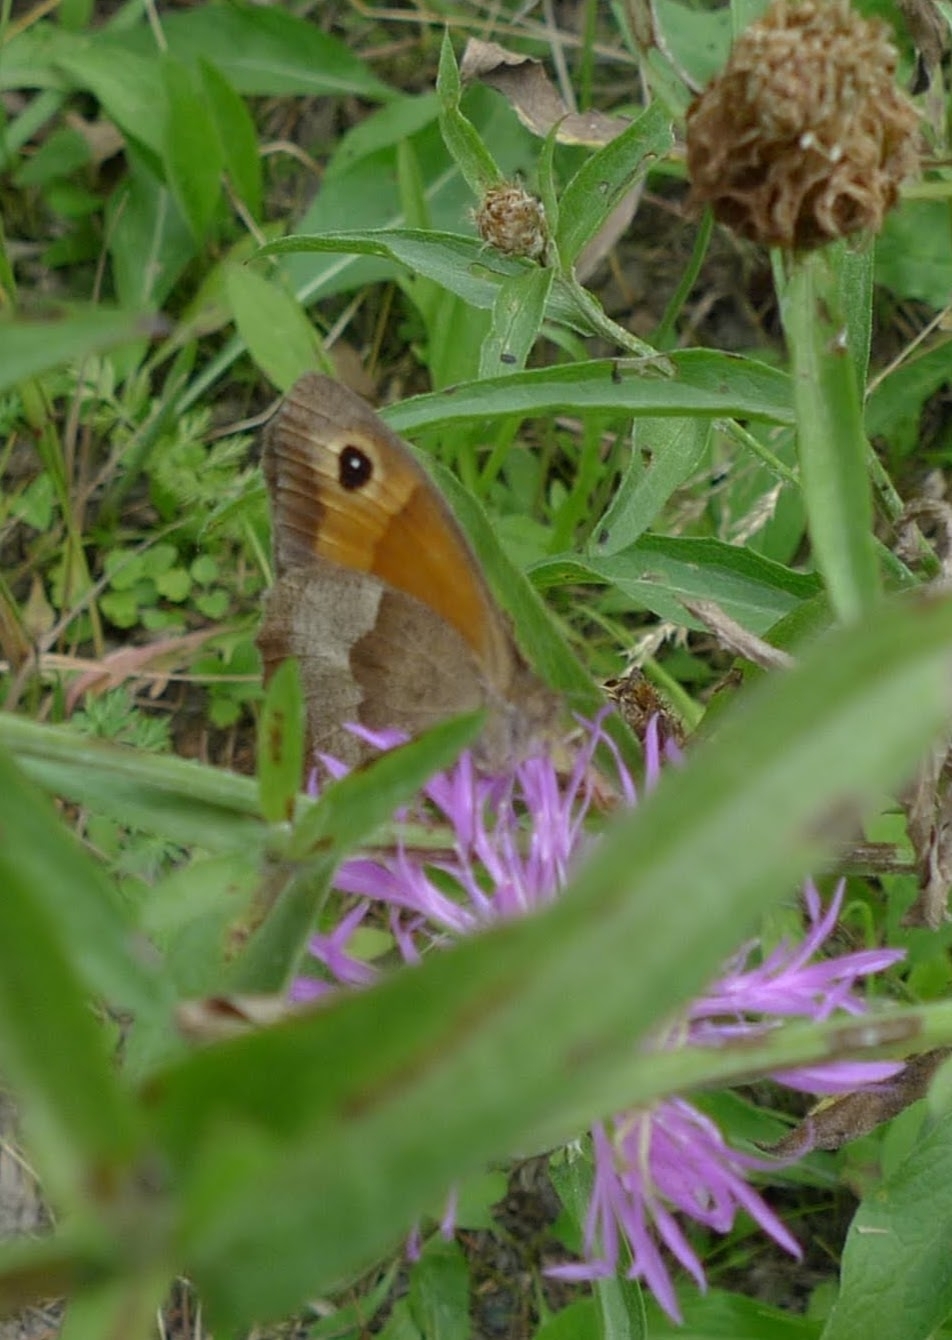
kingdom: Animalia
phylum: Arthropoda
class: Insecta
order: Lepidoptera
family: Nymphalidae
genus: Maniola
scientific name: Maniola jurtina
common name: Meadow brown
